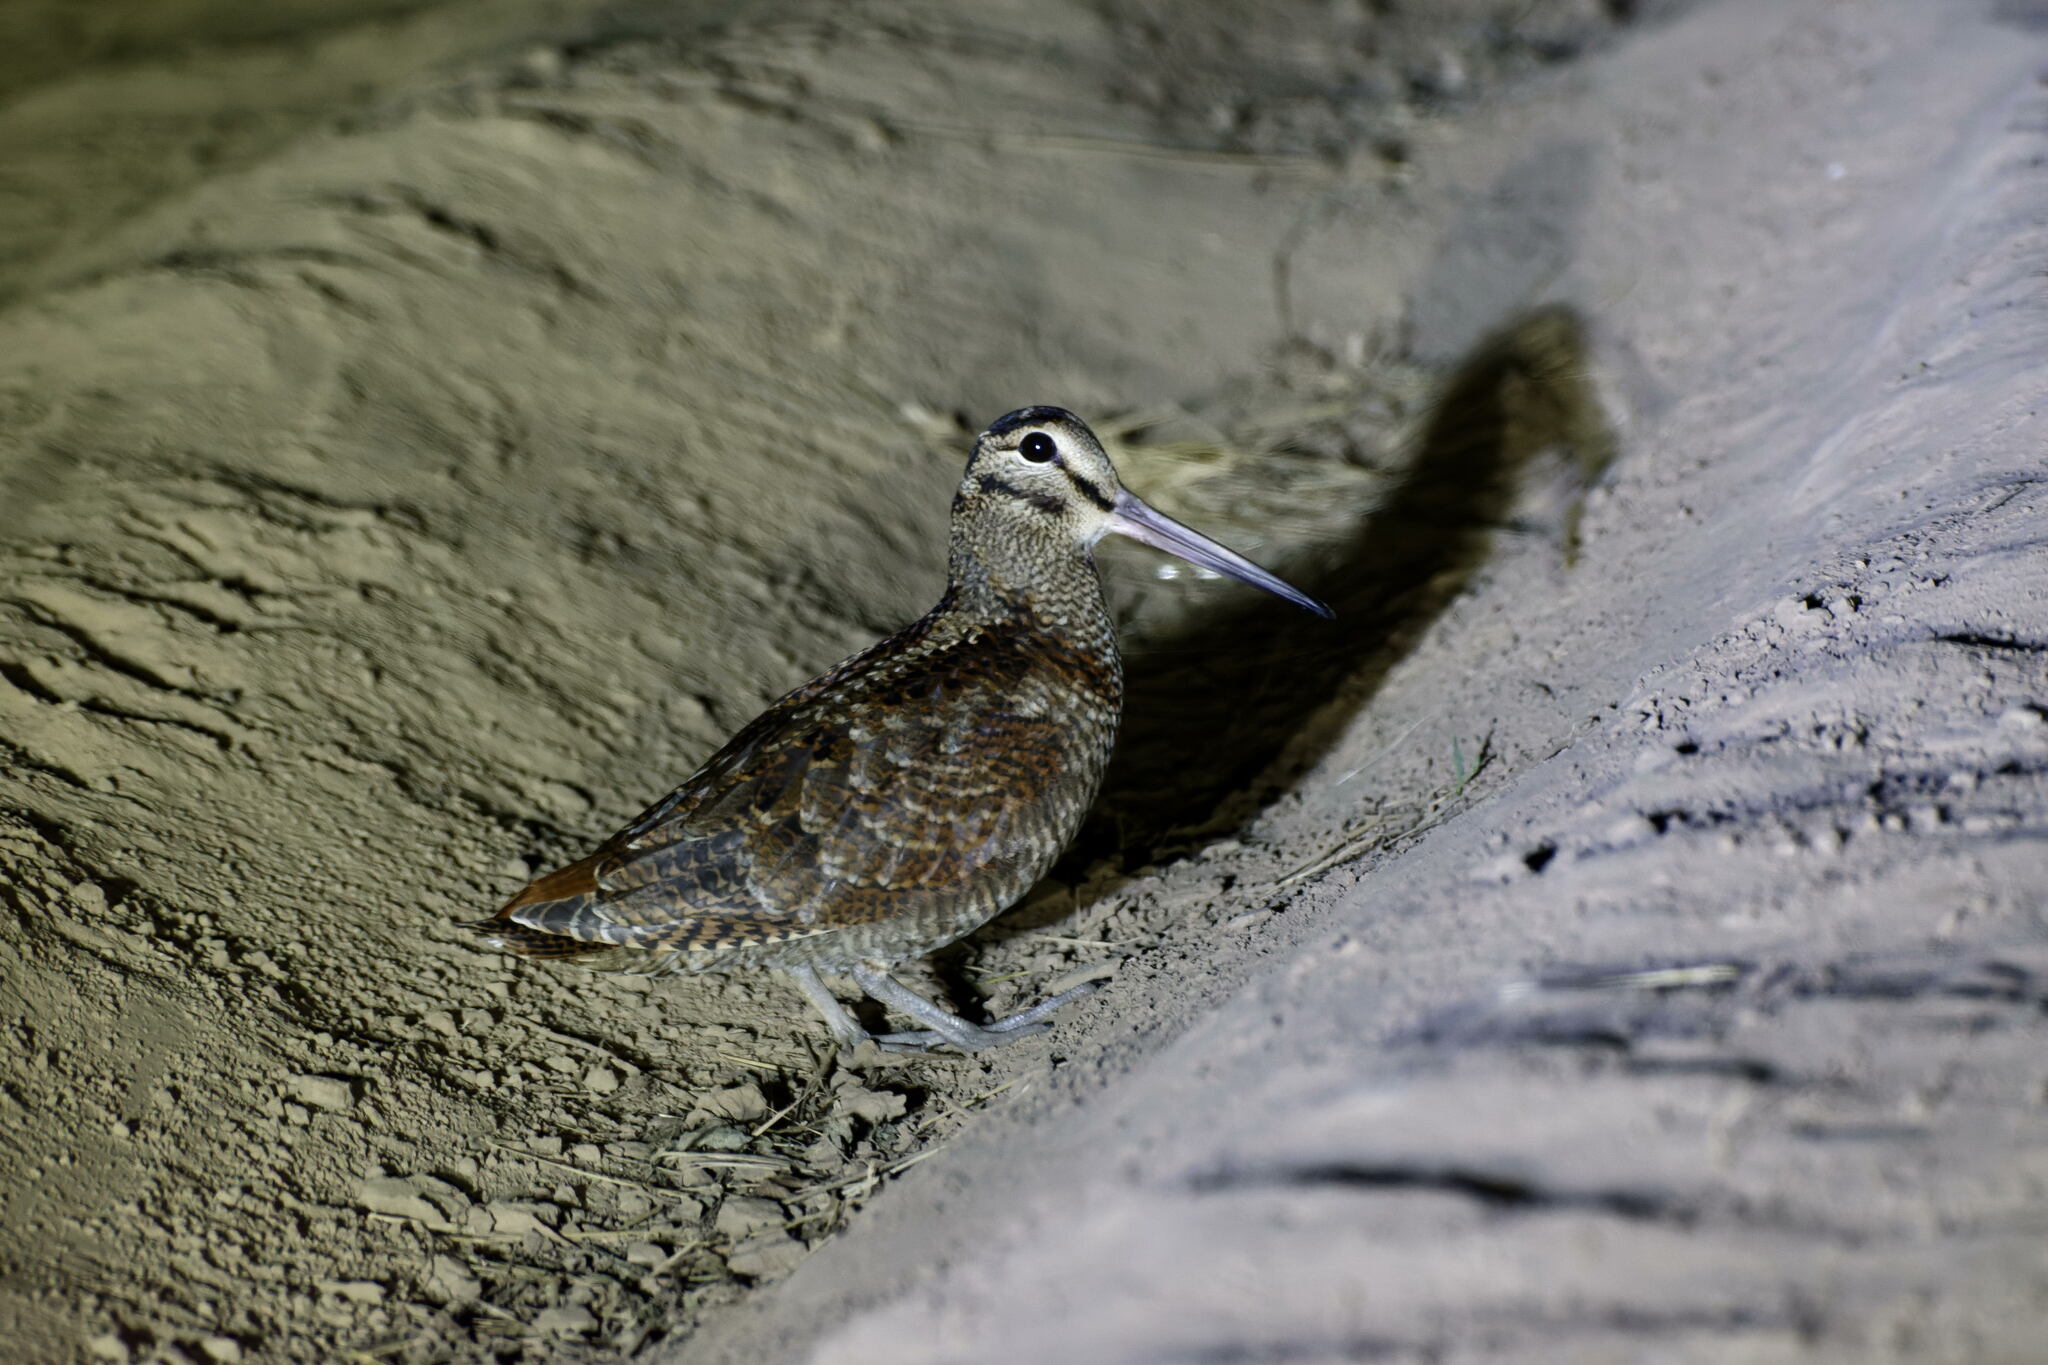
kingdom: Animalia
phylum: Chordata
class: Aves
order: Charadriiformes
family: Scolopacidae
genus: Scolopax
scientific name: Scolopax rusticola
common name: Eurasian woodcock
